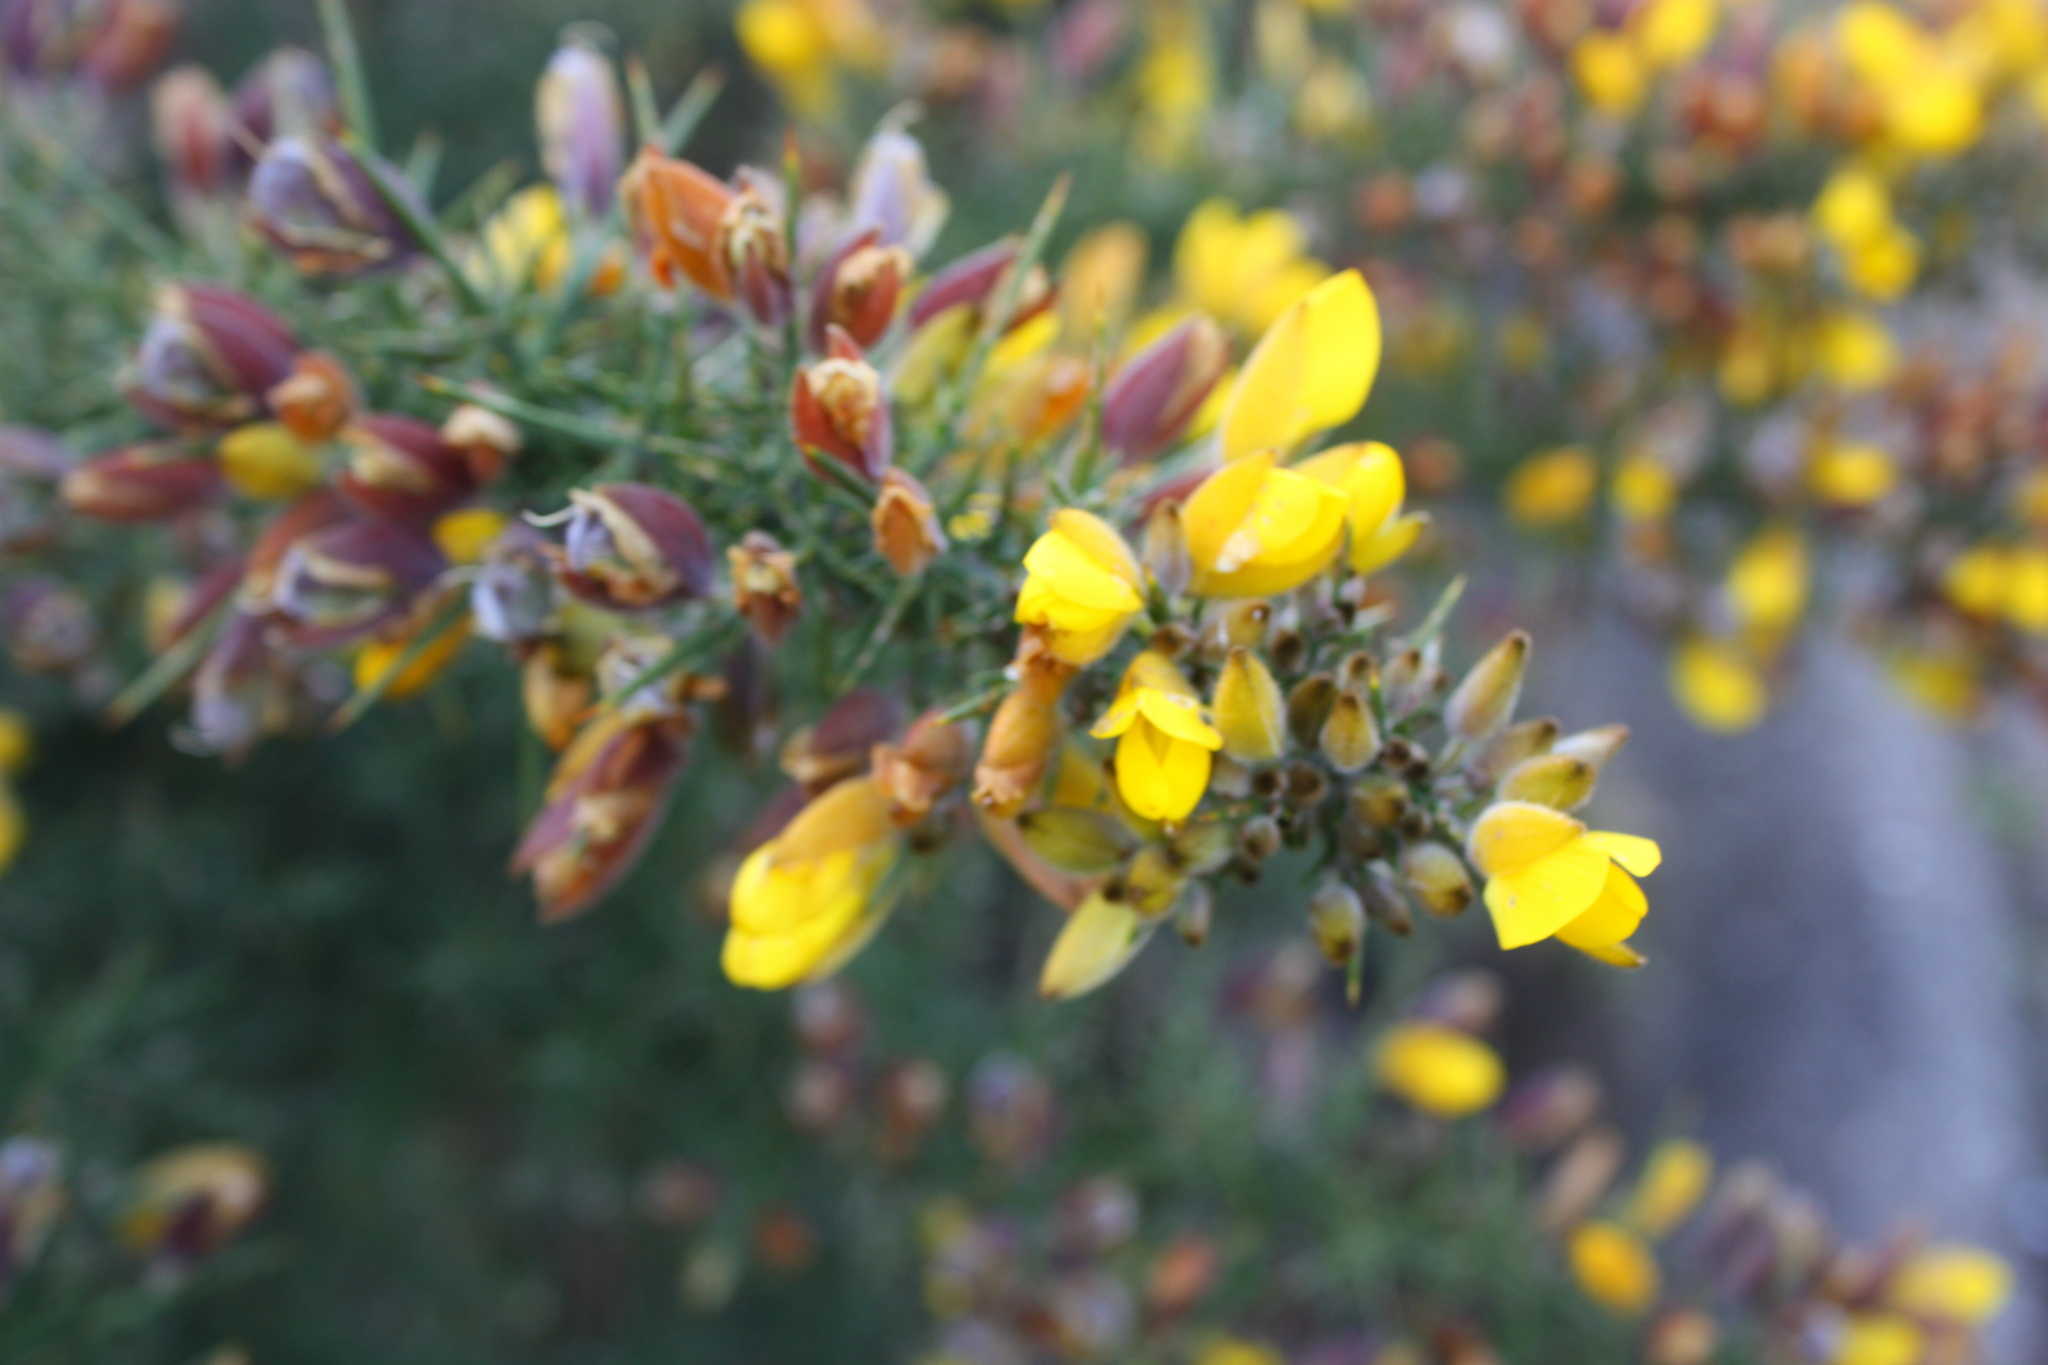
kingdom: Plantae
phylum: Tracheophyta
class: Magnoliopsida
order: Fabales
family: Fabaceae
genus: Ulex
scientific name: Ulex europaeus
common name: Common gorse
